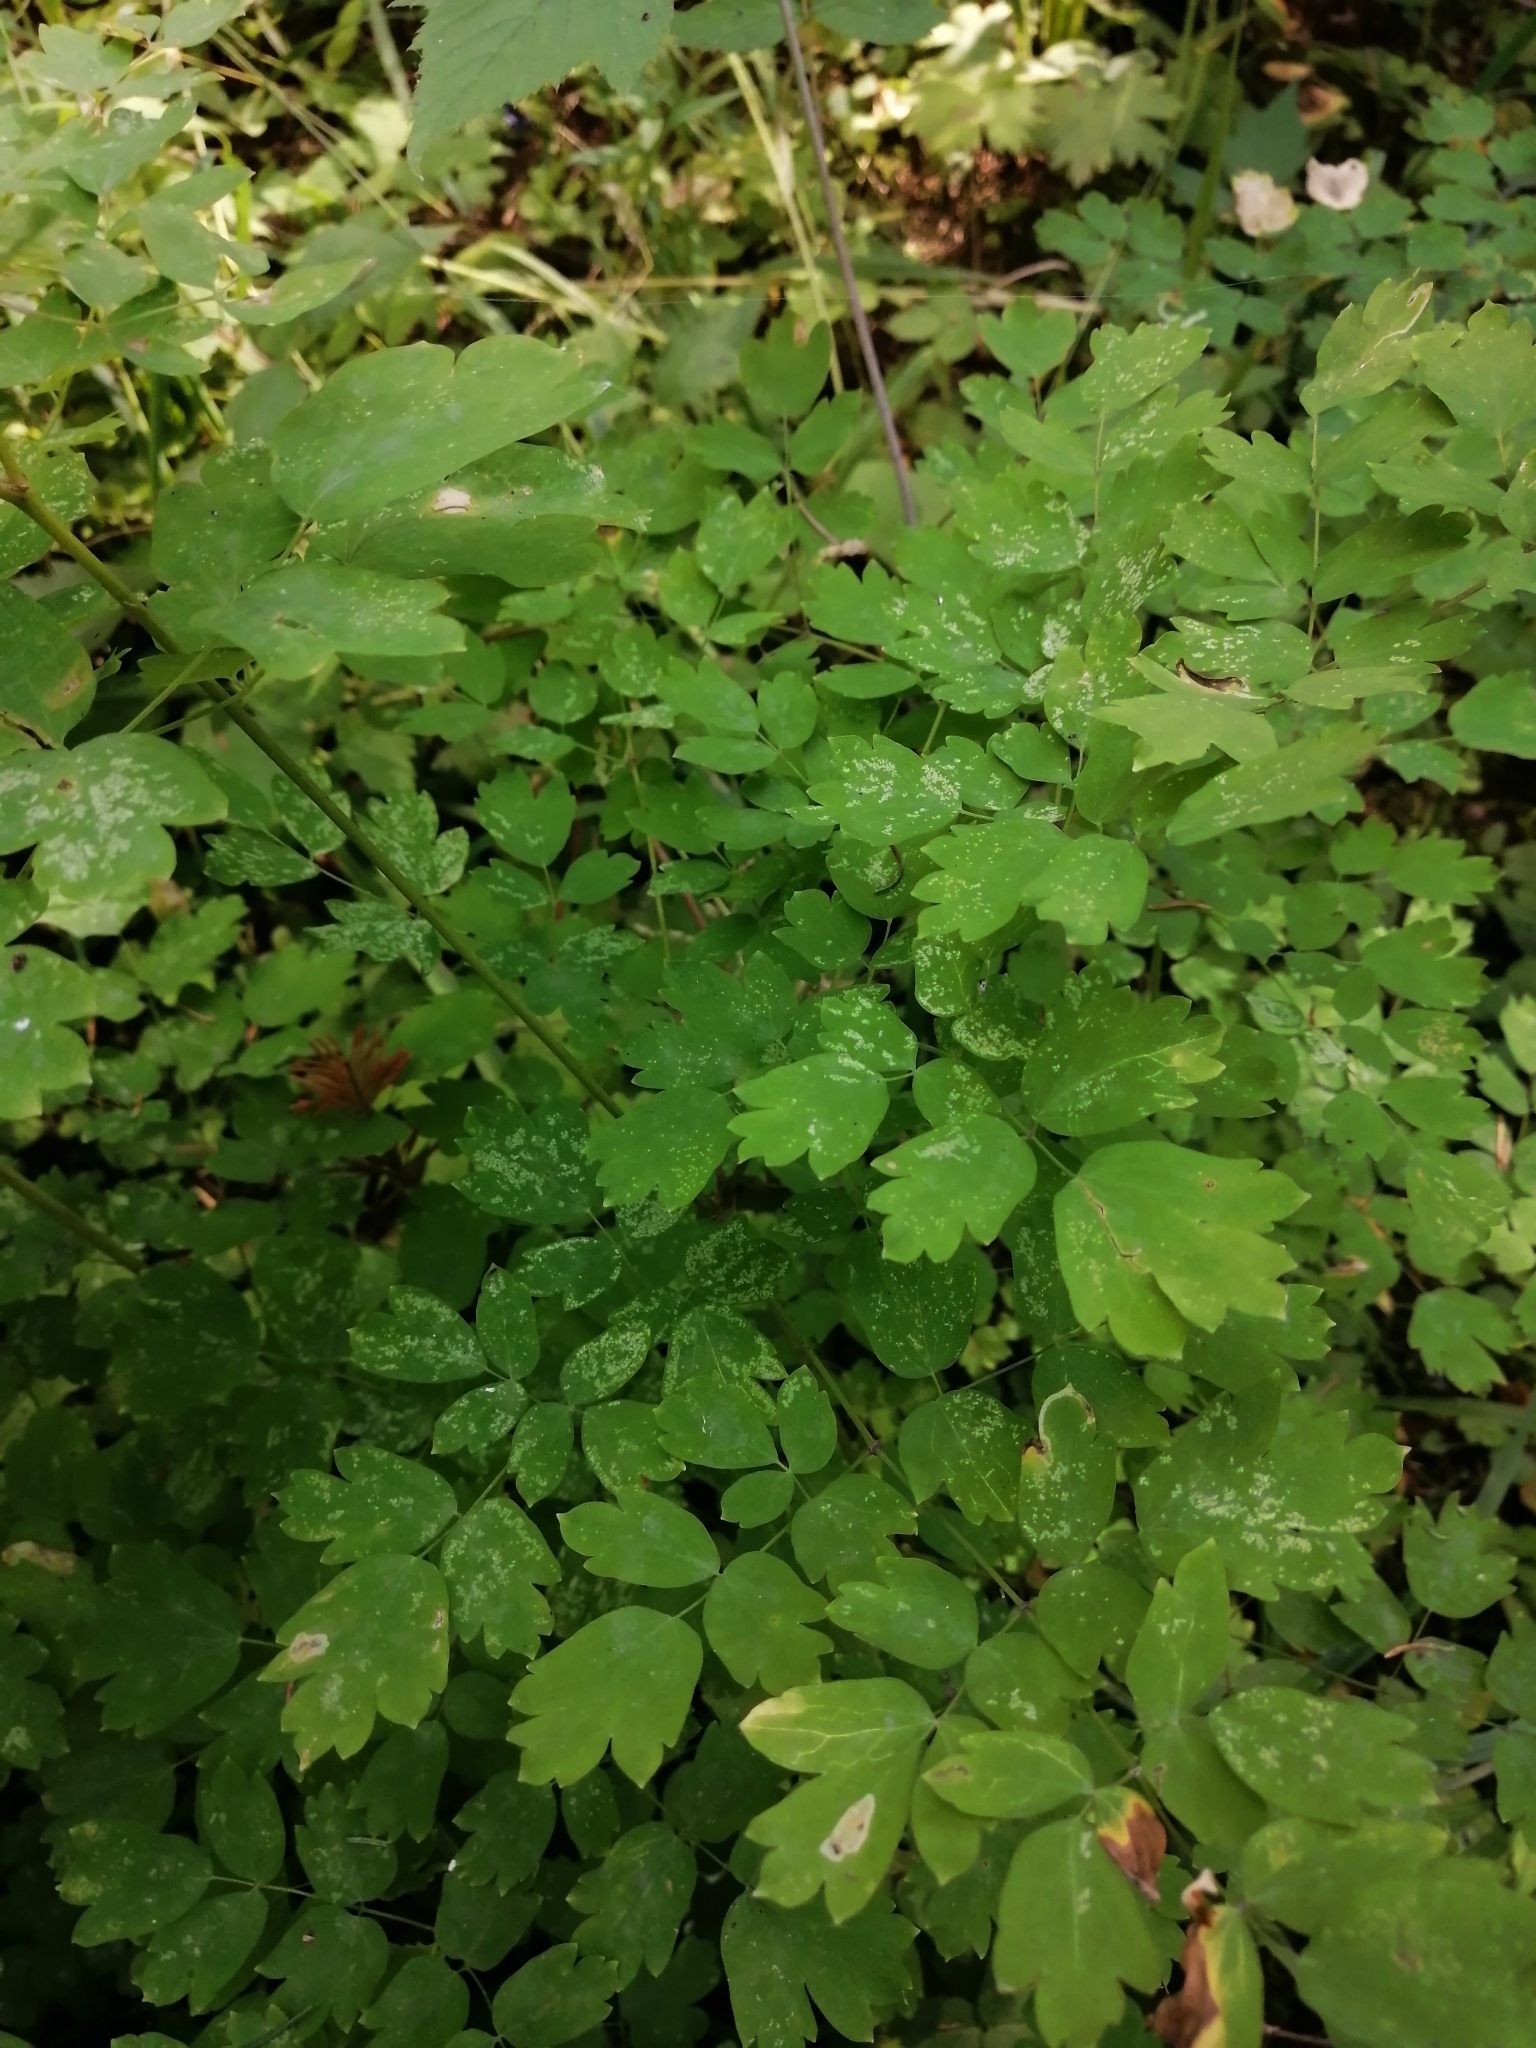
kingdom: Plantae
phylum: Tracheophyta
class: Magnoliopsida
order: Ranunculales
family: Ranunculaceae
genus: Thalictrum
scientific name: Thalictrum minus
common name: Lesser meadow-rue
